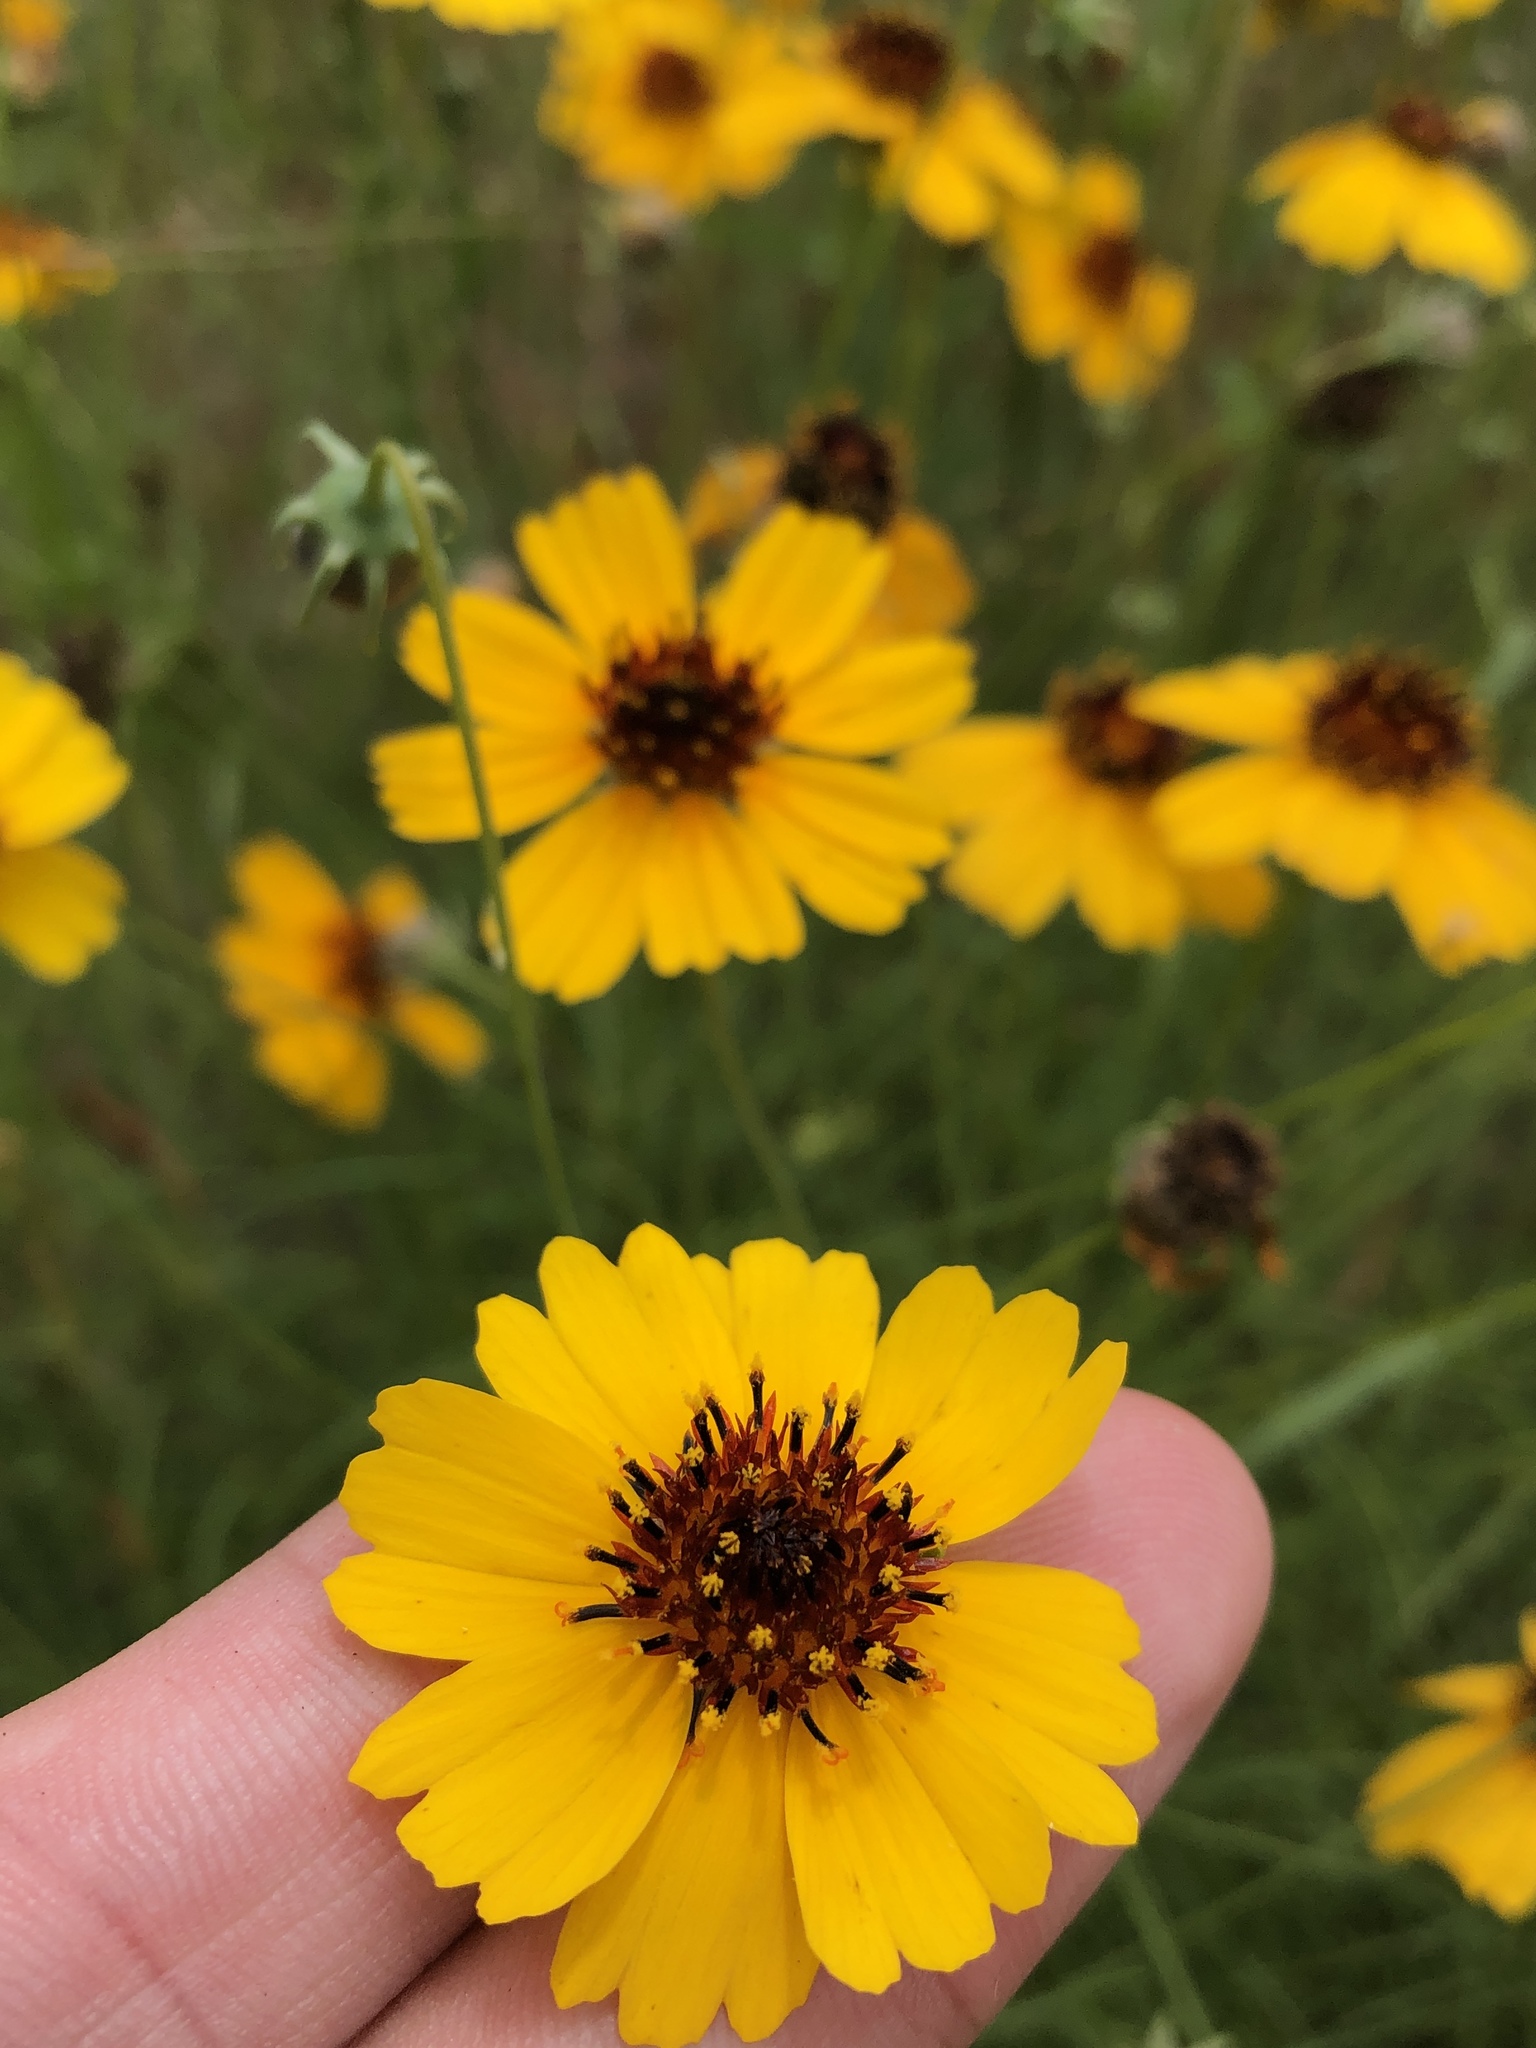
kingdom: Plantae
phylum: Tracheophyta
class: Magnoliopsida
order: Asterales
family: Asteraceae
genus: Thelesperma
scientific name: Thelesperma filifolium
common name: Stiff greenthread
